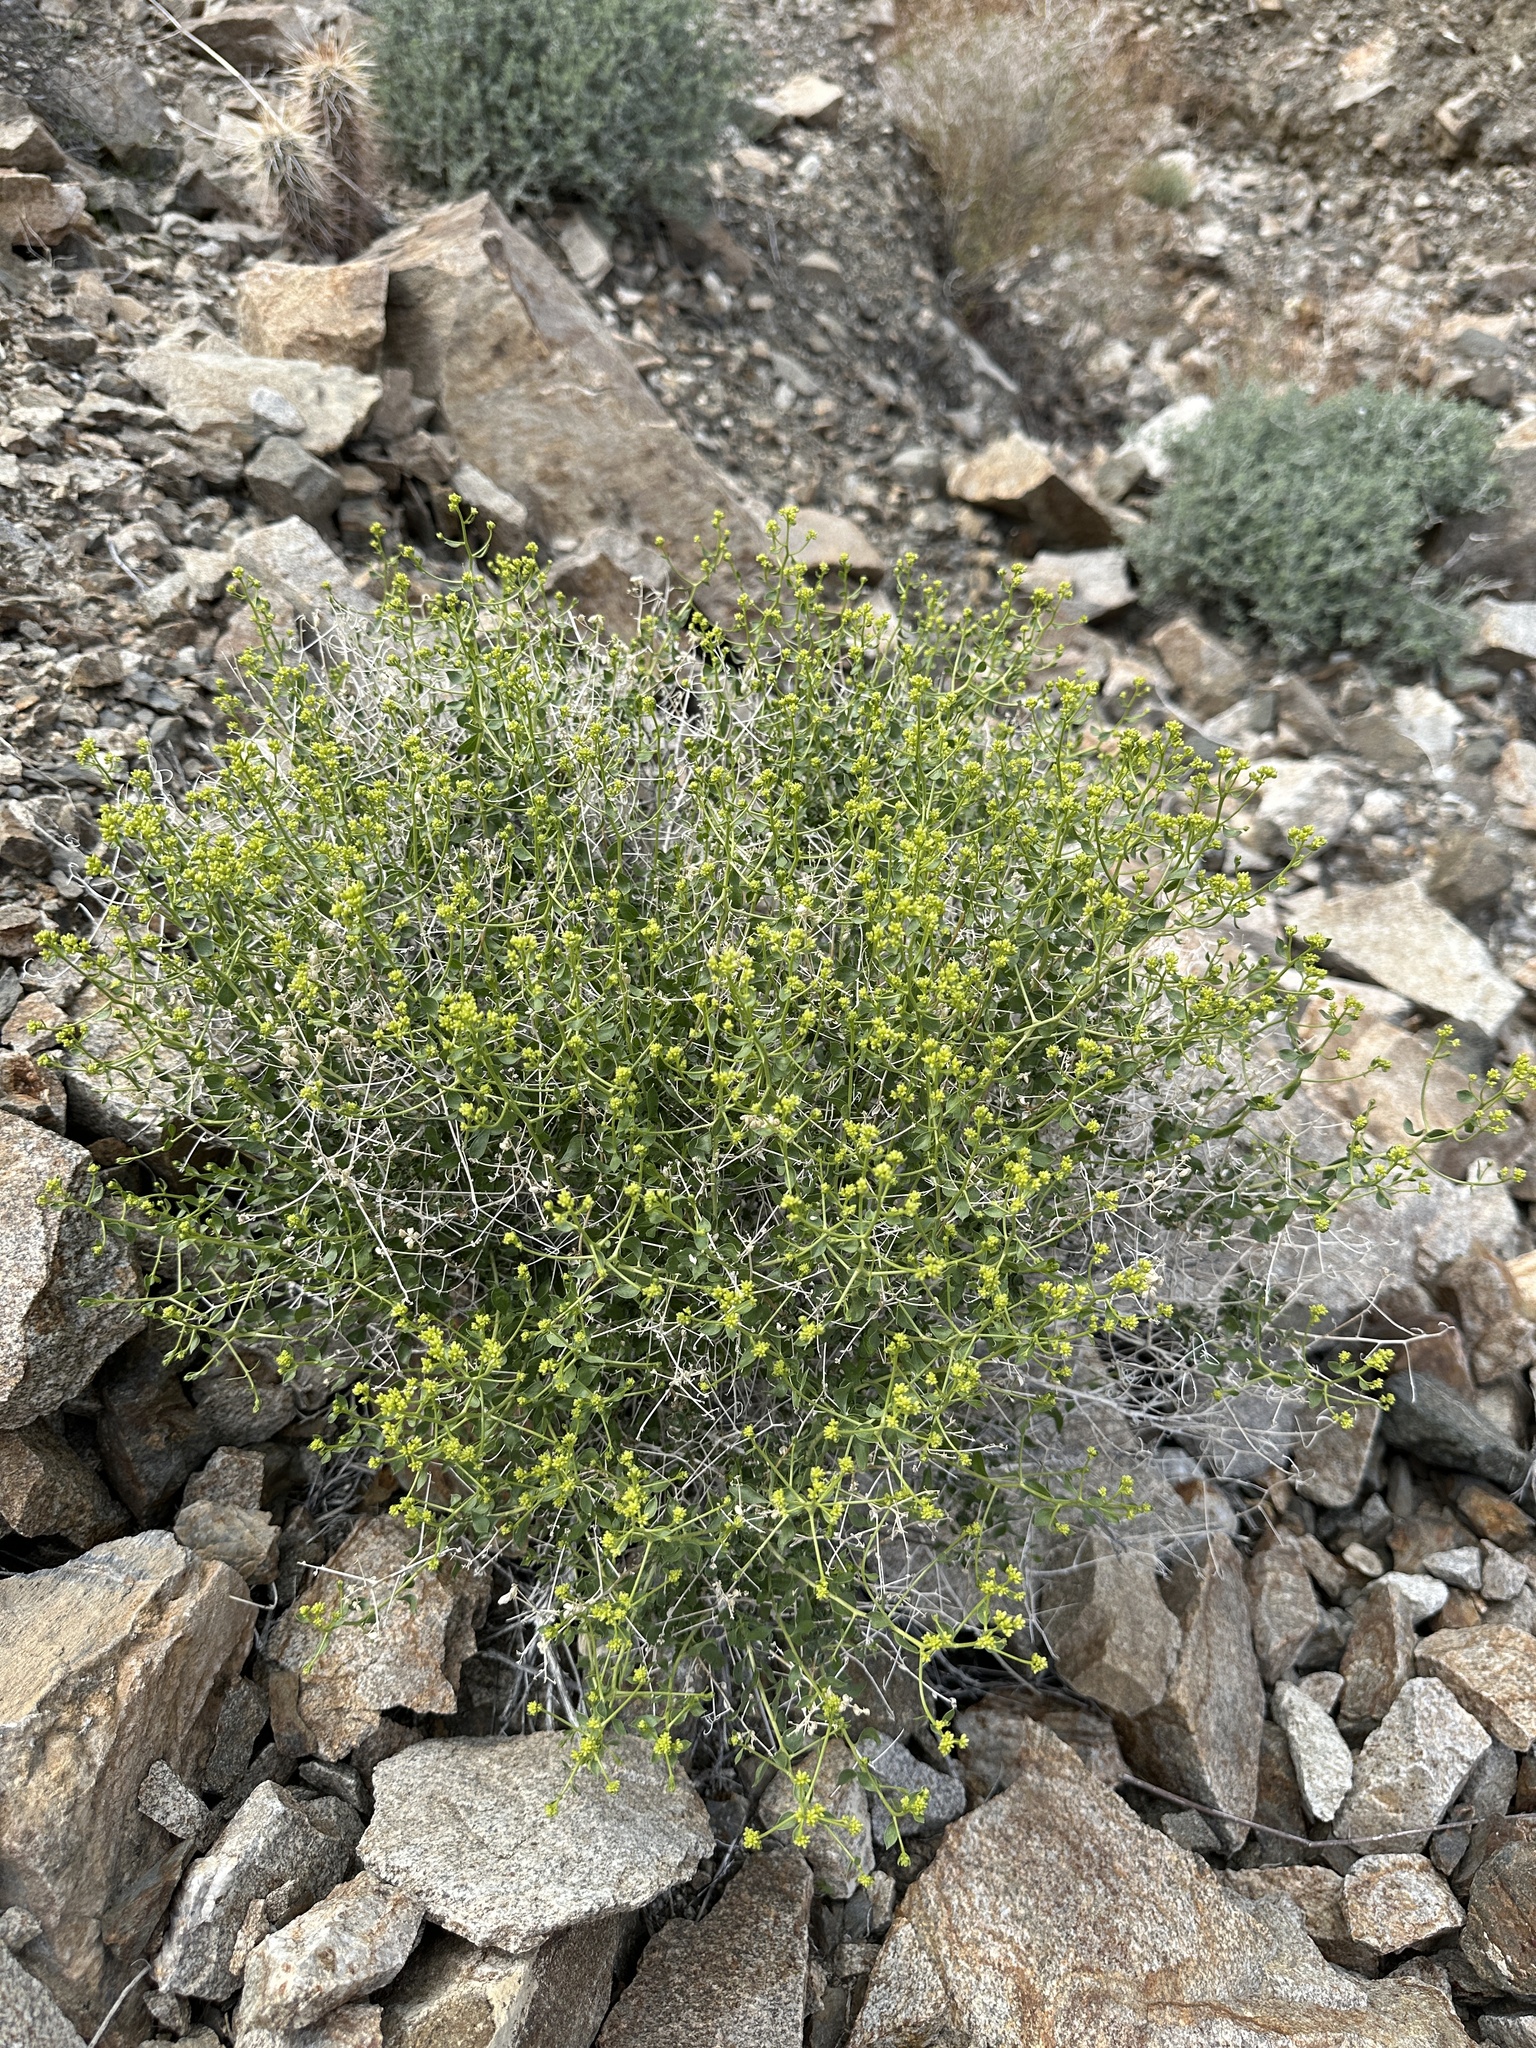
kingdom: Plantae
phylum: Tracheophyta
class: Magnoliopsida
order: Asterales
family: Asteraceae
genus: Amphipappus
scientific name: Amphipappus fremontii
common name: Fremont's chaffbush
